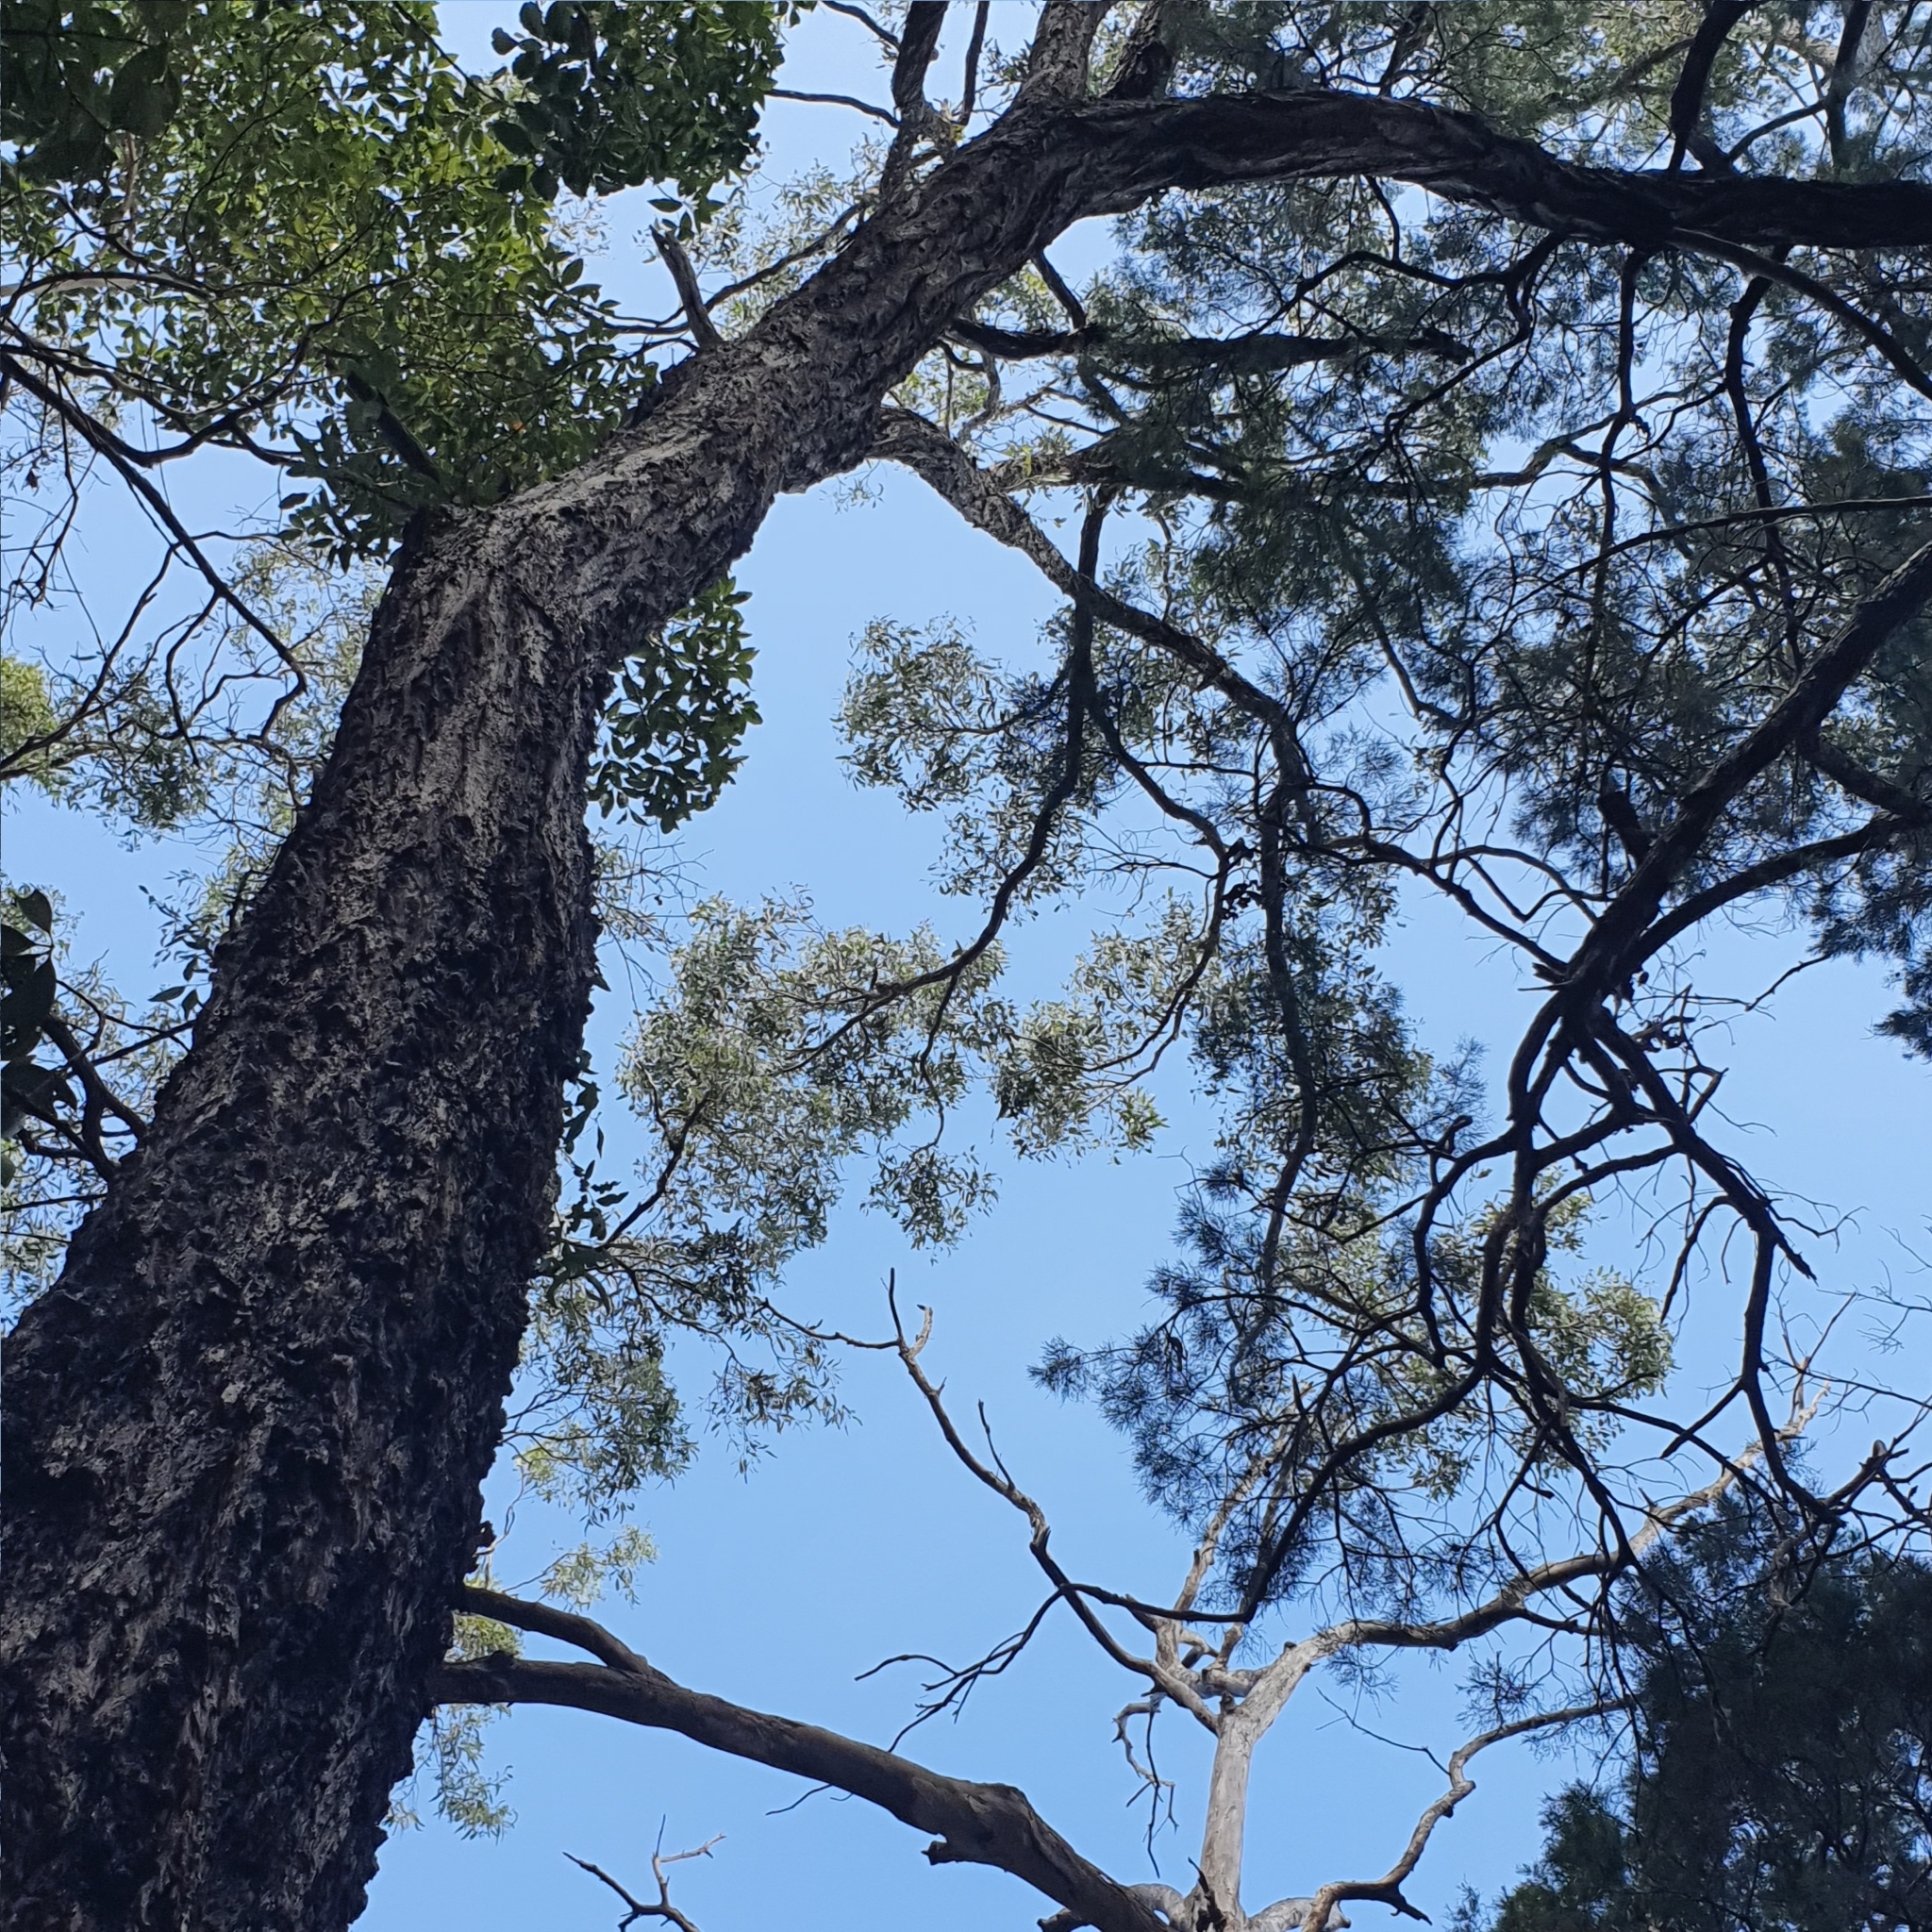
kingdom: Plantae
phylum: Tracheophyta
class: Magnoliopsida
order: Myrtales
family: Myrtaceae
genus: Eucalyptus
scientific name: Eucalyptus siderophloia
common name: Broad-leafed-ironbark
